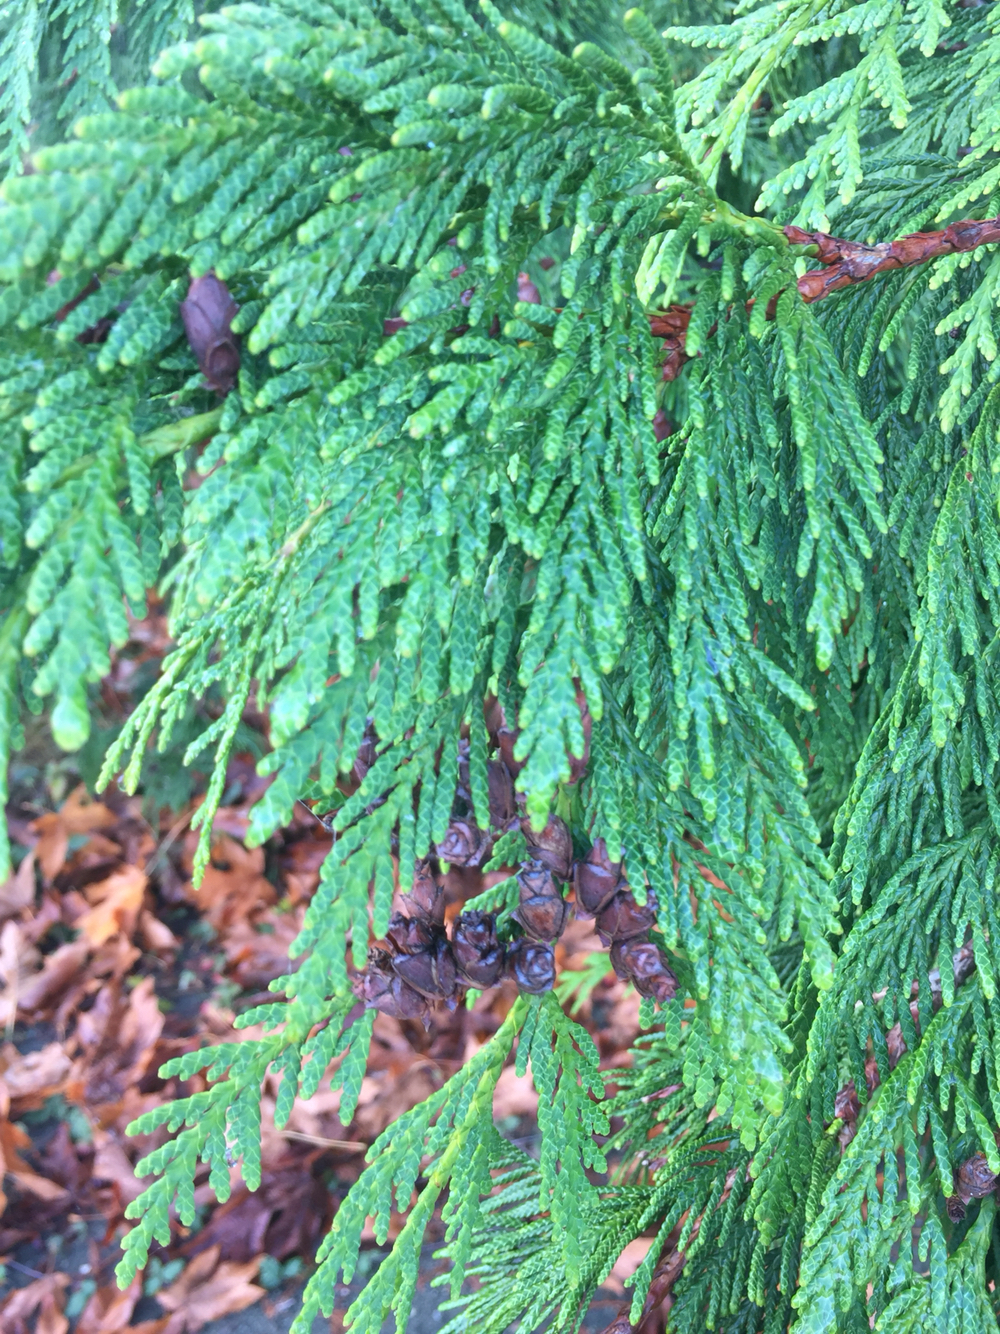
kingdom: Plantae
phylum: Tracheophyta
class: Pinopsida
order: Pinales
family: Cupressaceae
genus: Thuja
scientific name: Thuja plicata
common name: Western red-cedar
